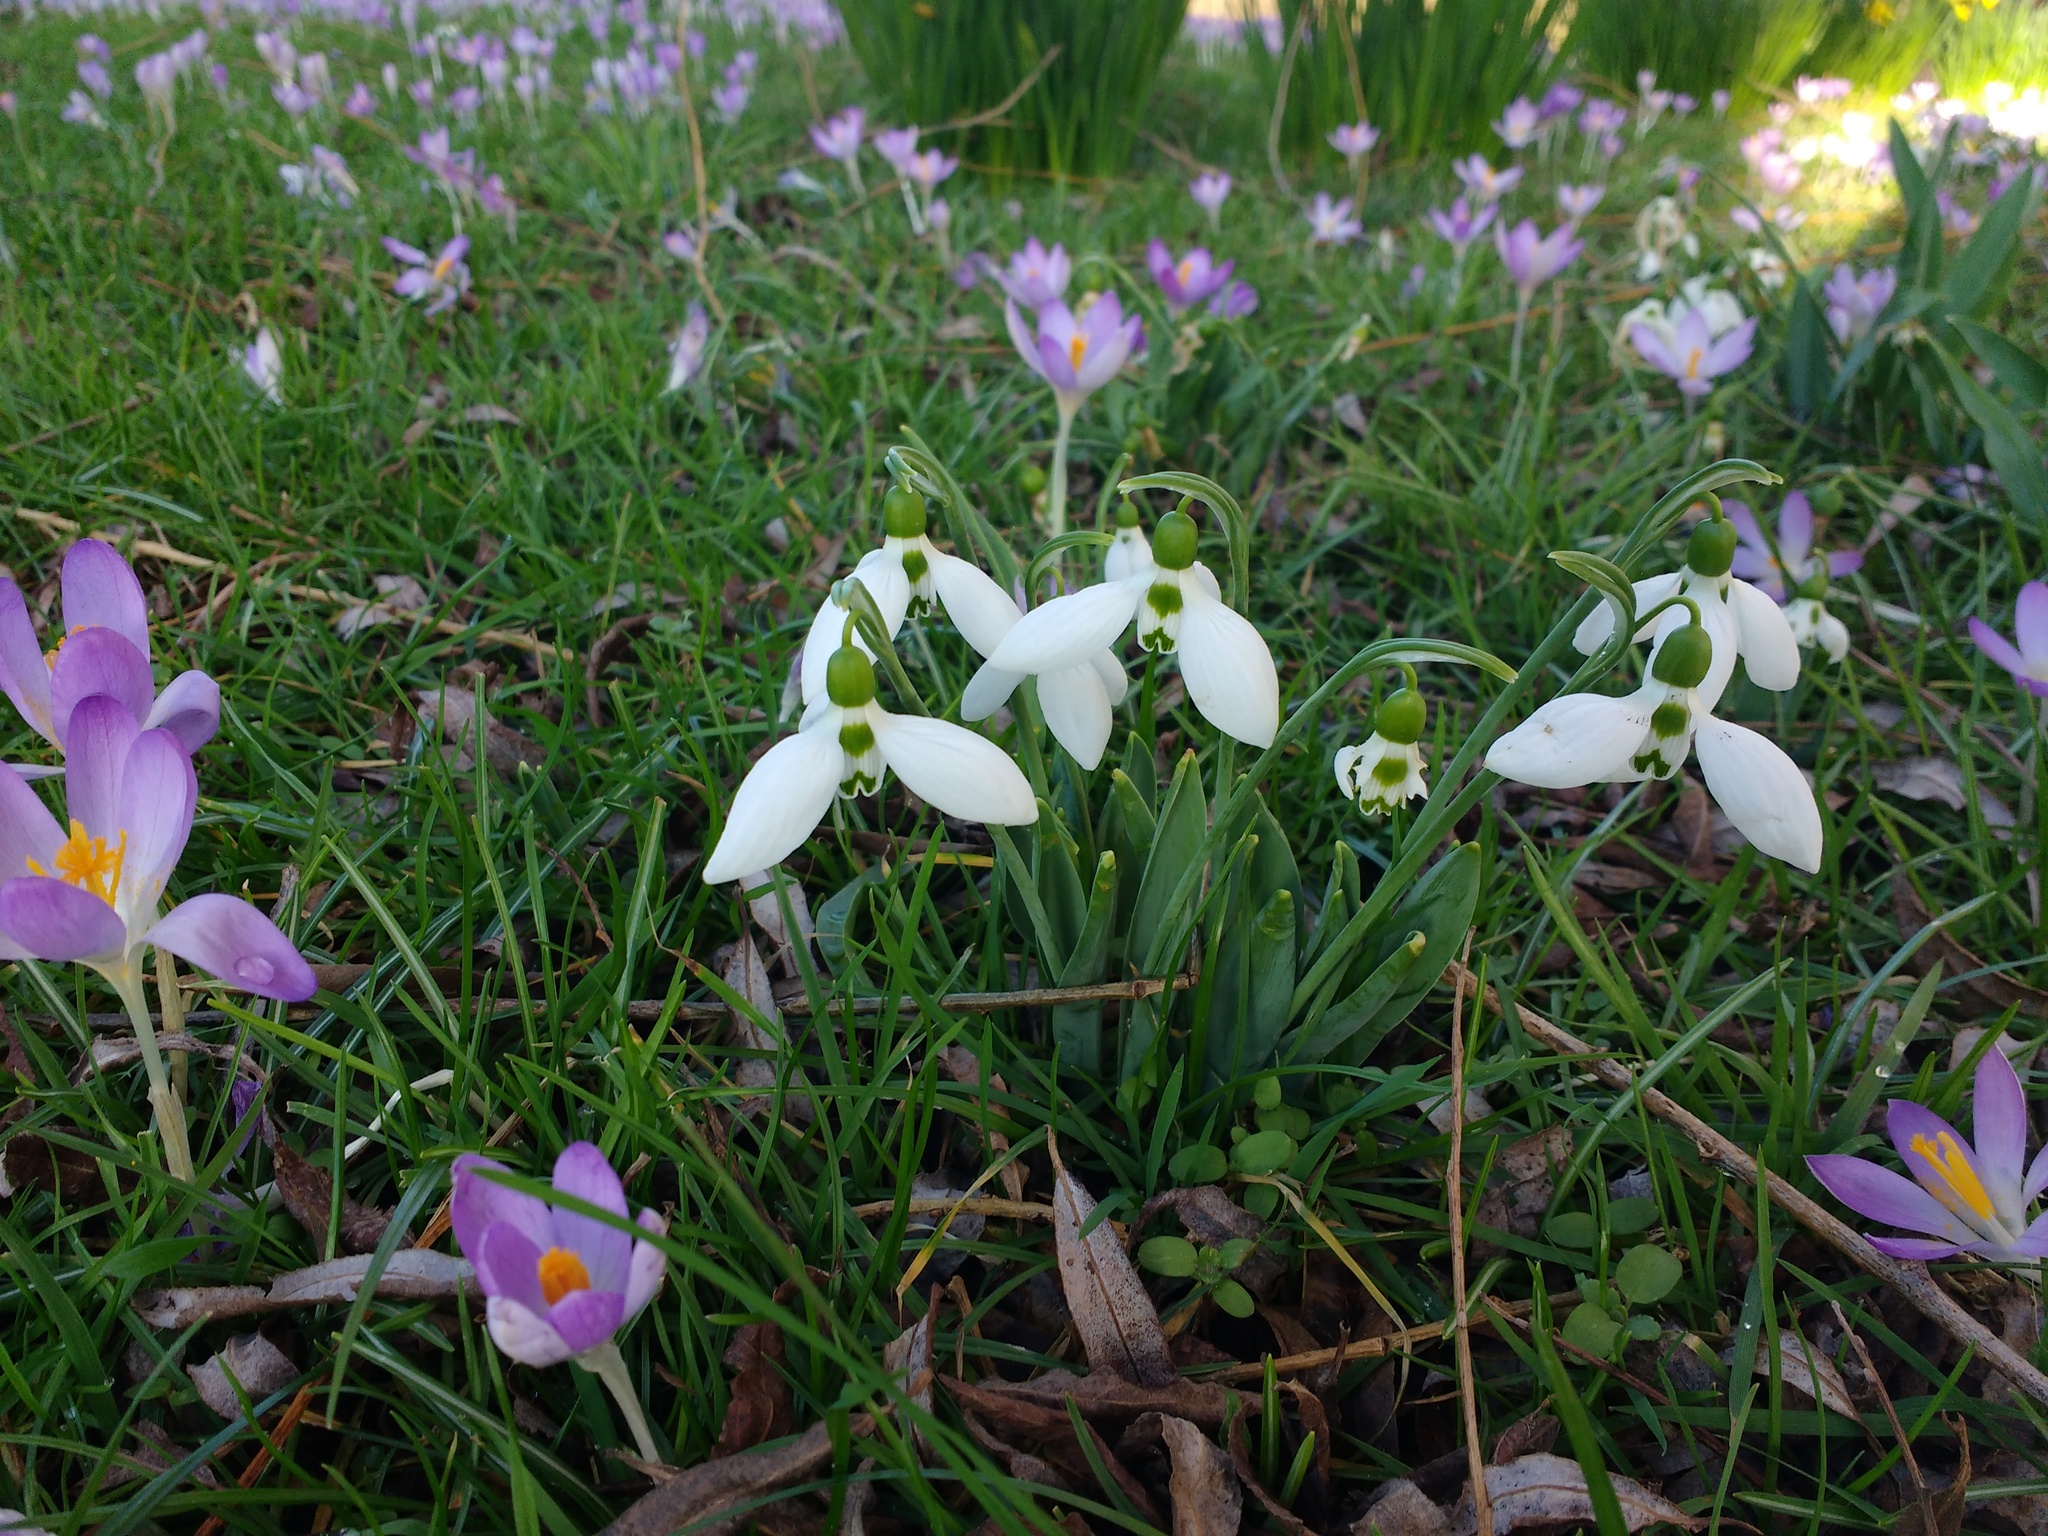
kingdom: Plantae
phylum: Tracheophyta
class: Liliopsida
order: Asparagales
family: Amaryllidaceae
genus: Galanthus
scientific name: Galanthus elwesii
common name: Greater snowdrop
